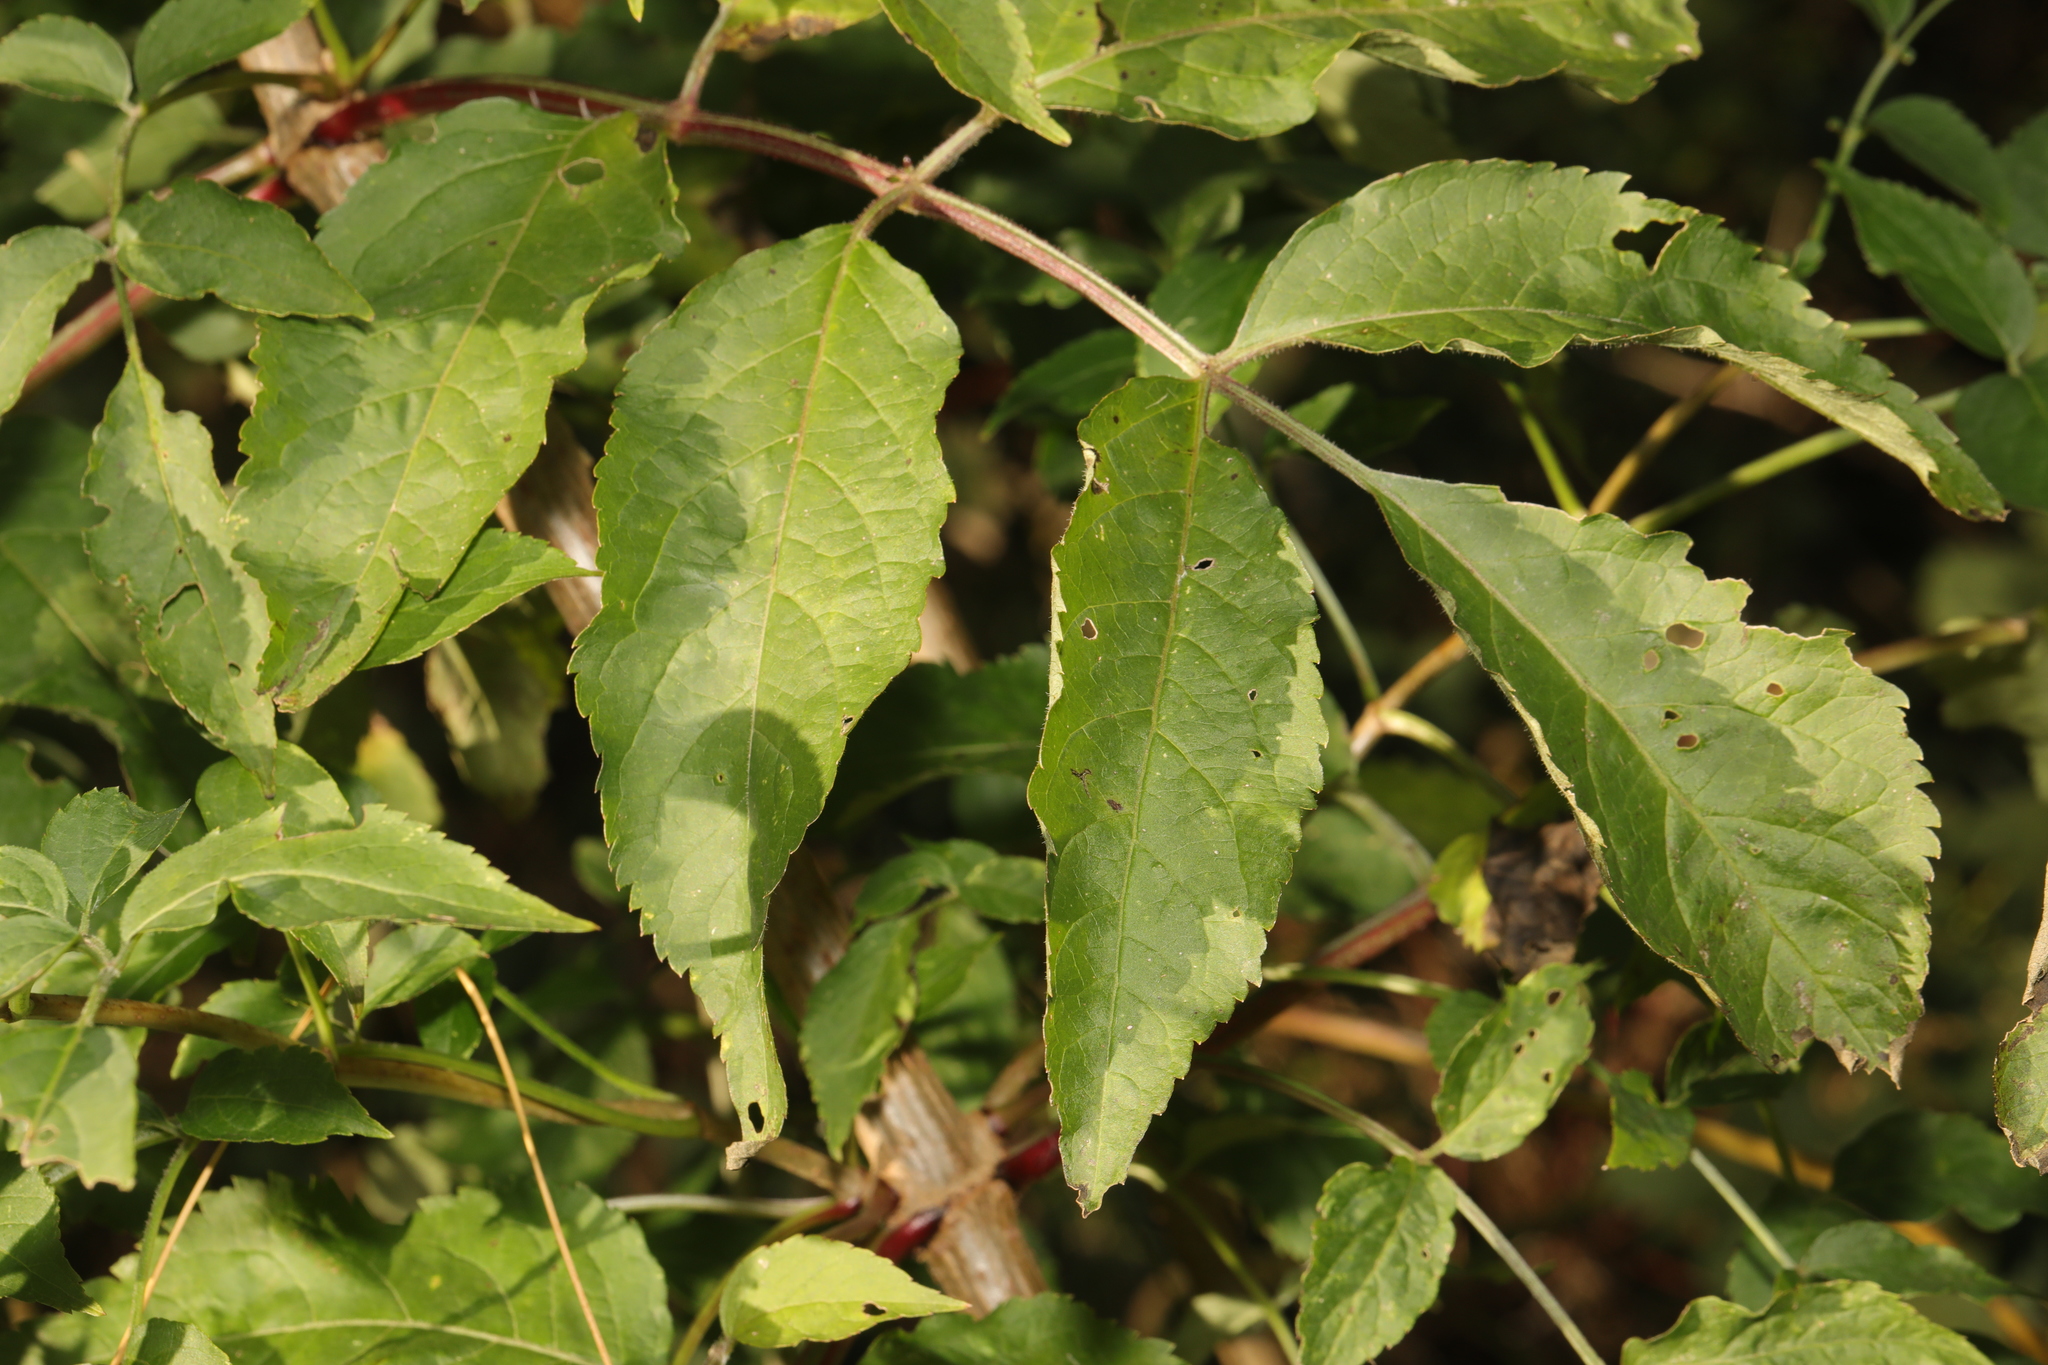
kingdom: Plantae
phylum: Tracheophyta
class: Magnoliopsida
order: Dipsacales
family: Viburnaceae
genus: Sambucus
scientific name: Sambucus nigra
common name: Elder
